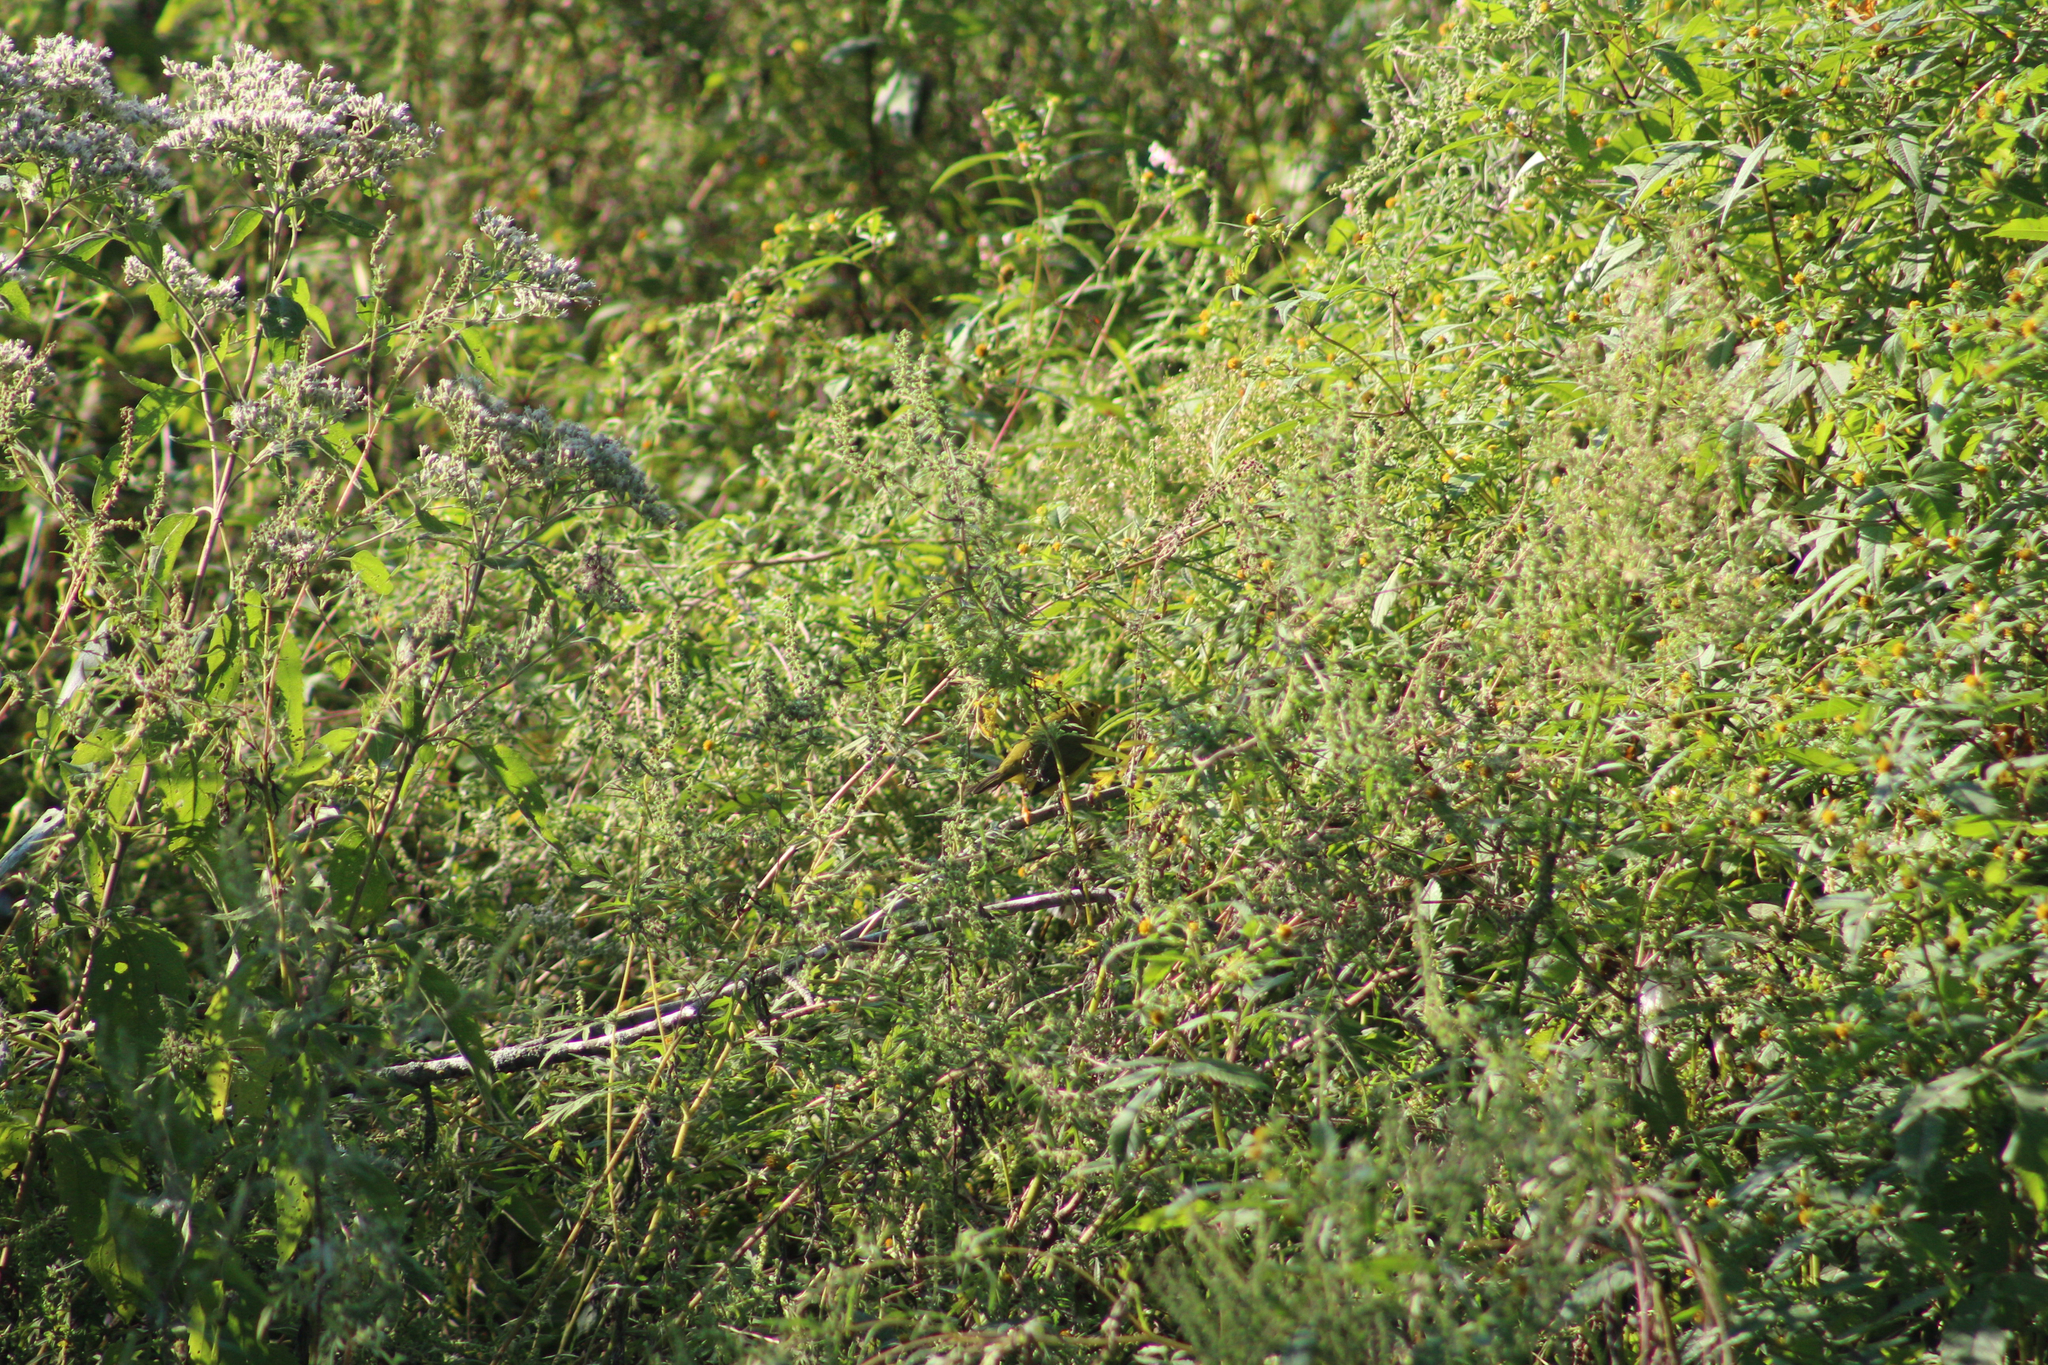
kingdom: Animalia
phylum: Chordata
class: Aves
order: Passeriformes
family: Parulidae
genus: Cardellina
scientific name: Cardellina pusilla
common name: Wilson's warbler
